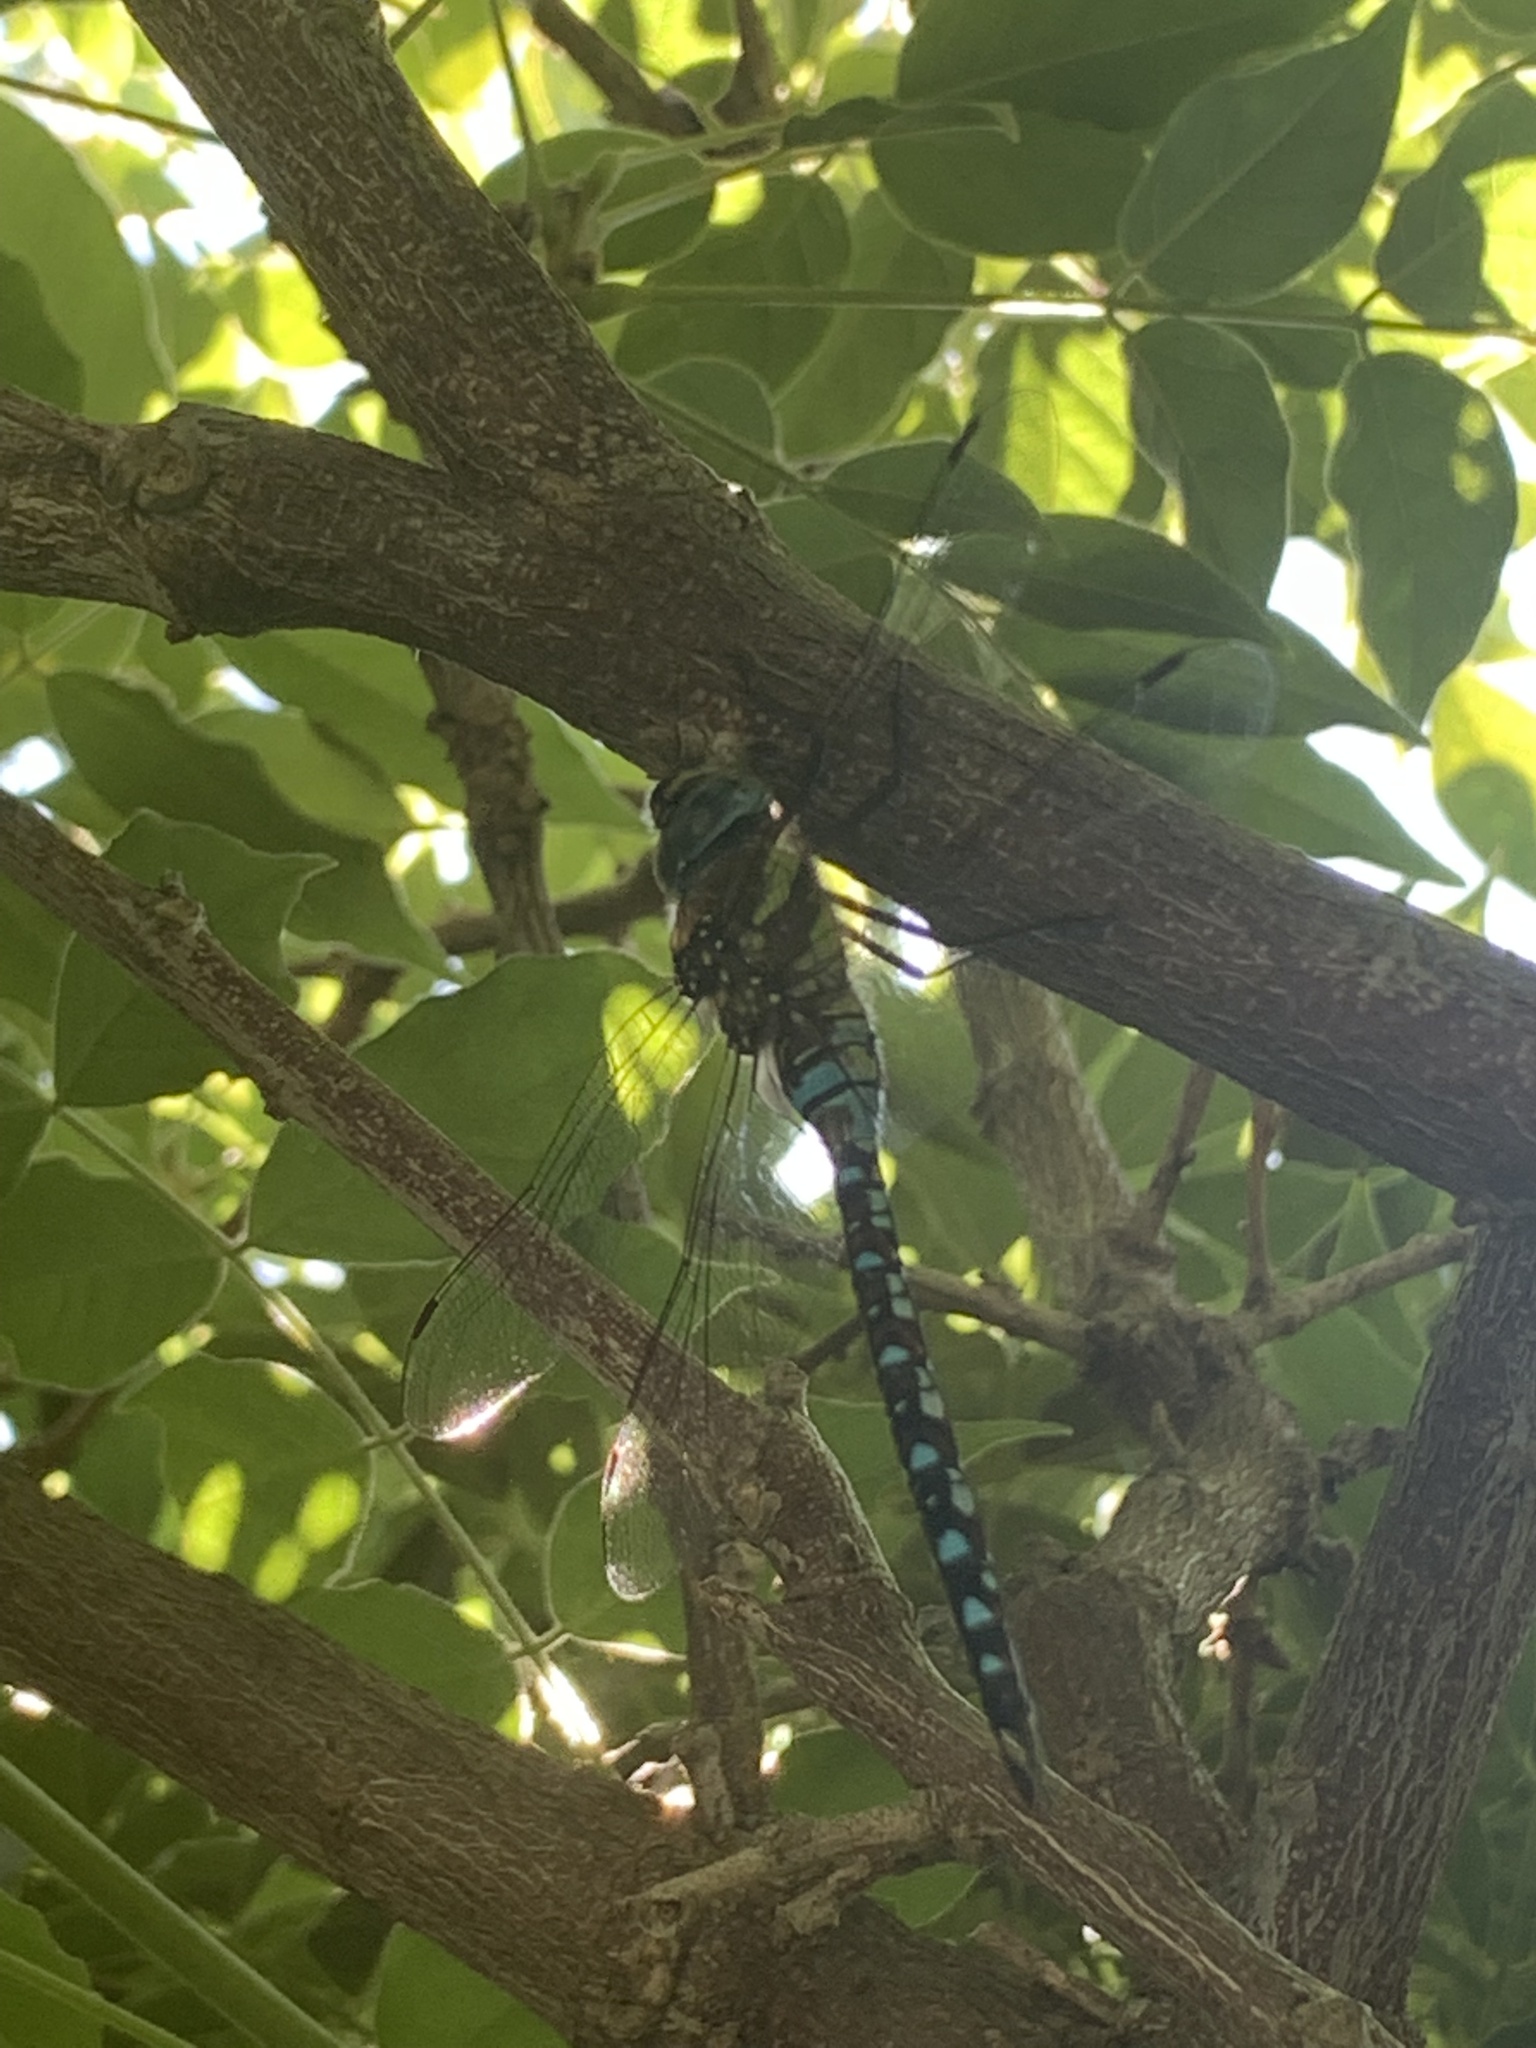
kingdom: Animalia
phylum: Arthropoda
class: Insecta
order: Odonata
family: Aeshnidae
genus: Aeshna
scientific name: Aeshna mixta
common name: Migrant hawker
